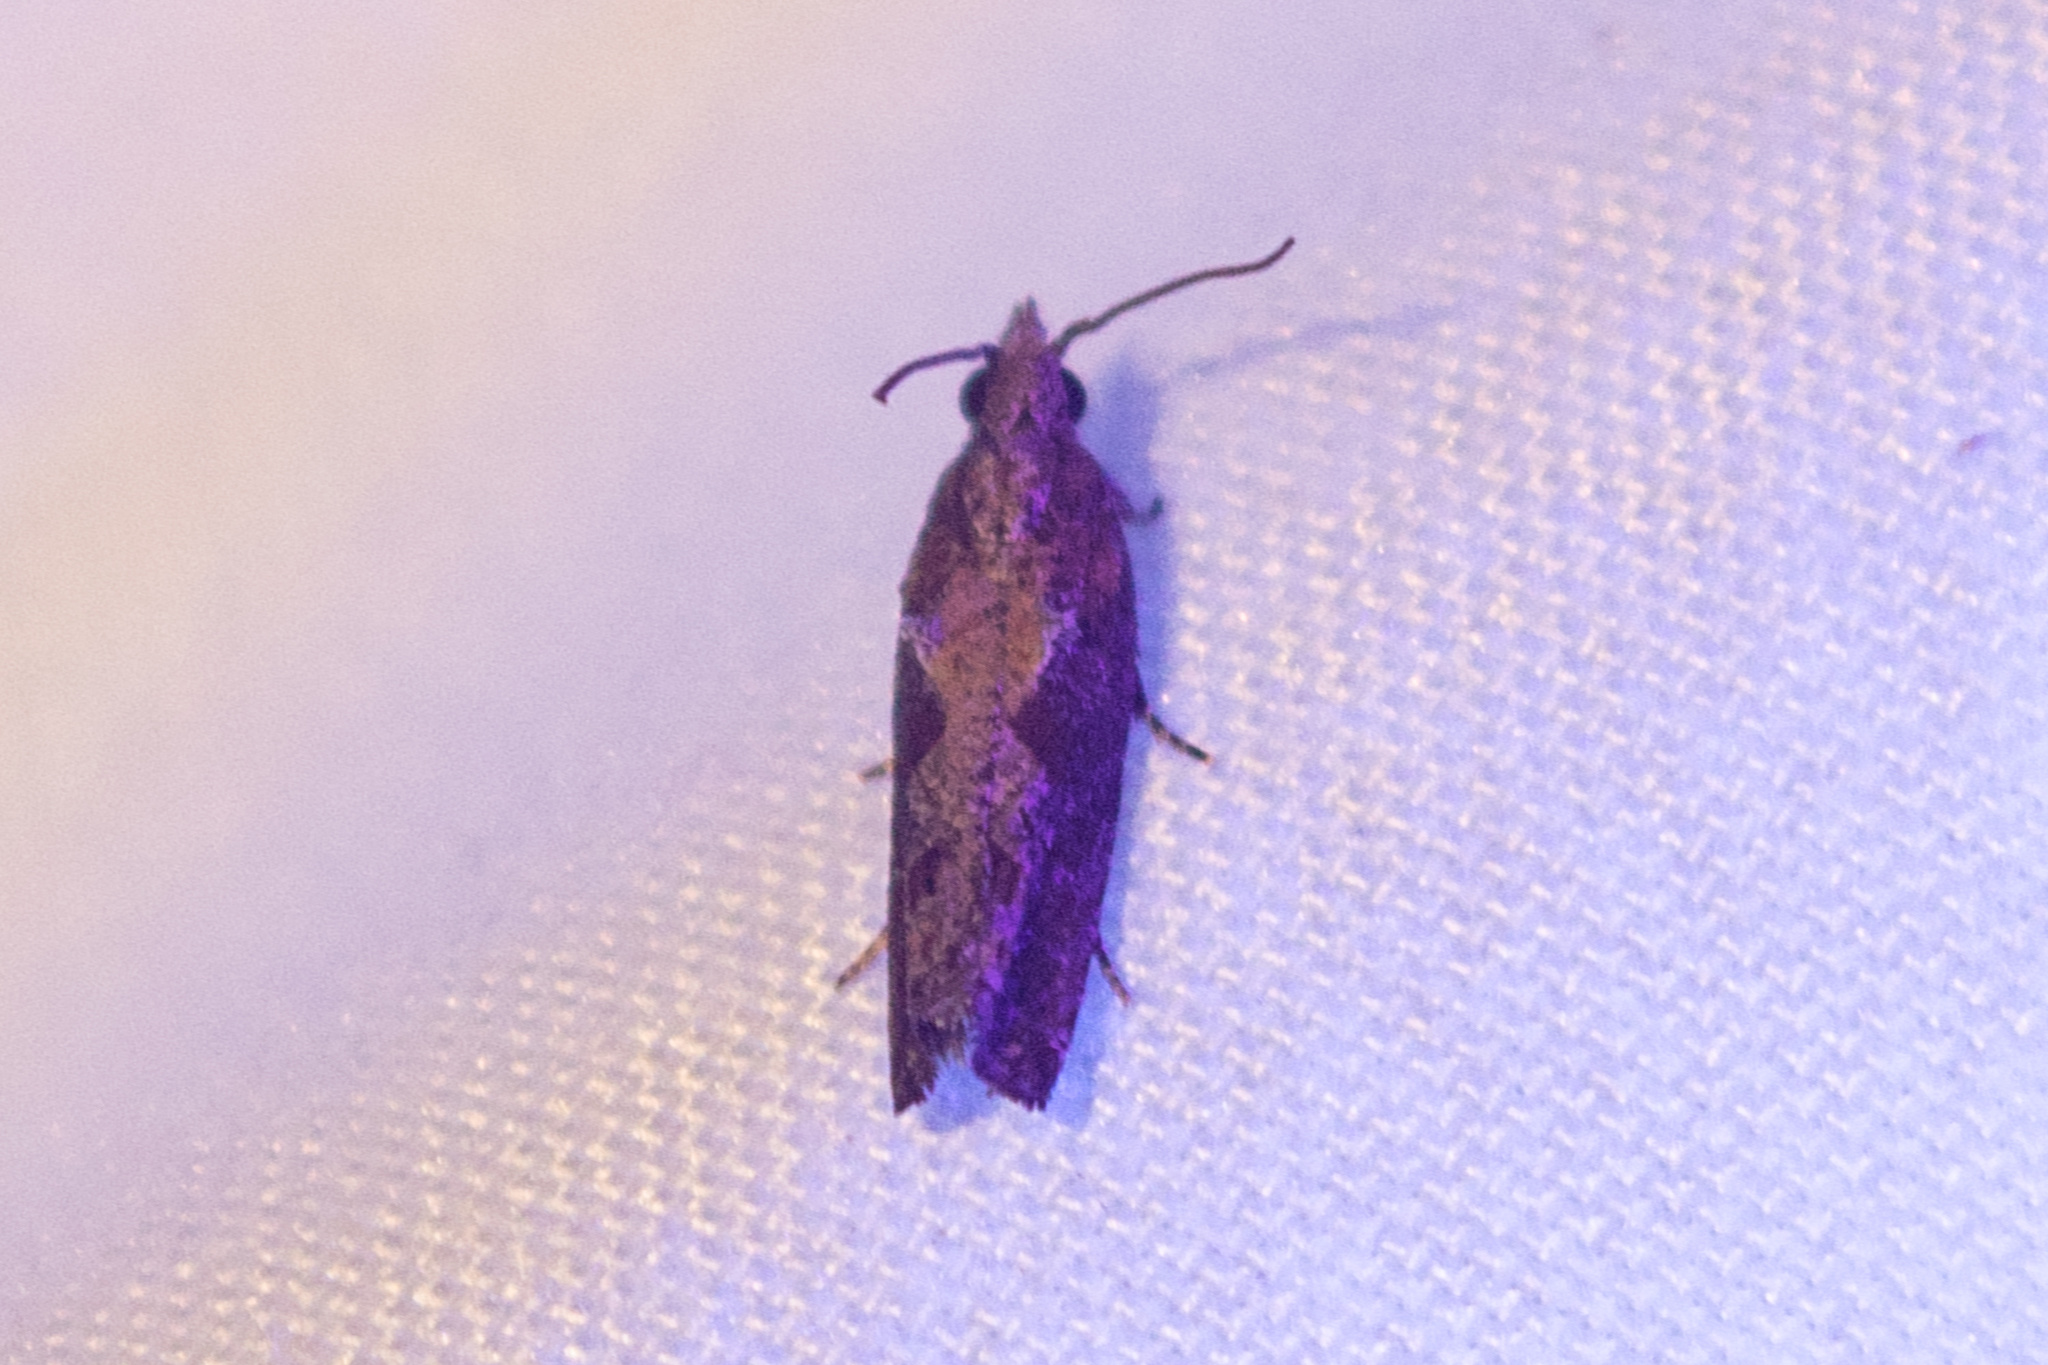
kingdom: Animalia
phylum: Arthropoda
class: Insecta
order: Lepidoptera
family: Tortricidae
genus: Strepsicrates
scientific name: Strepsicrates smithiana
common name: Bayberry leaftier moth
